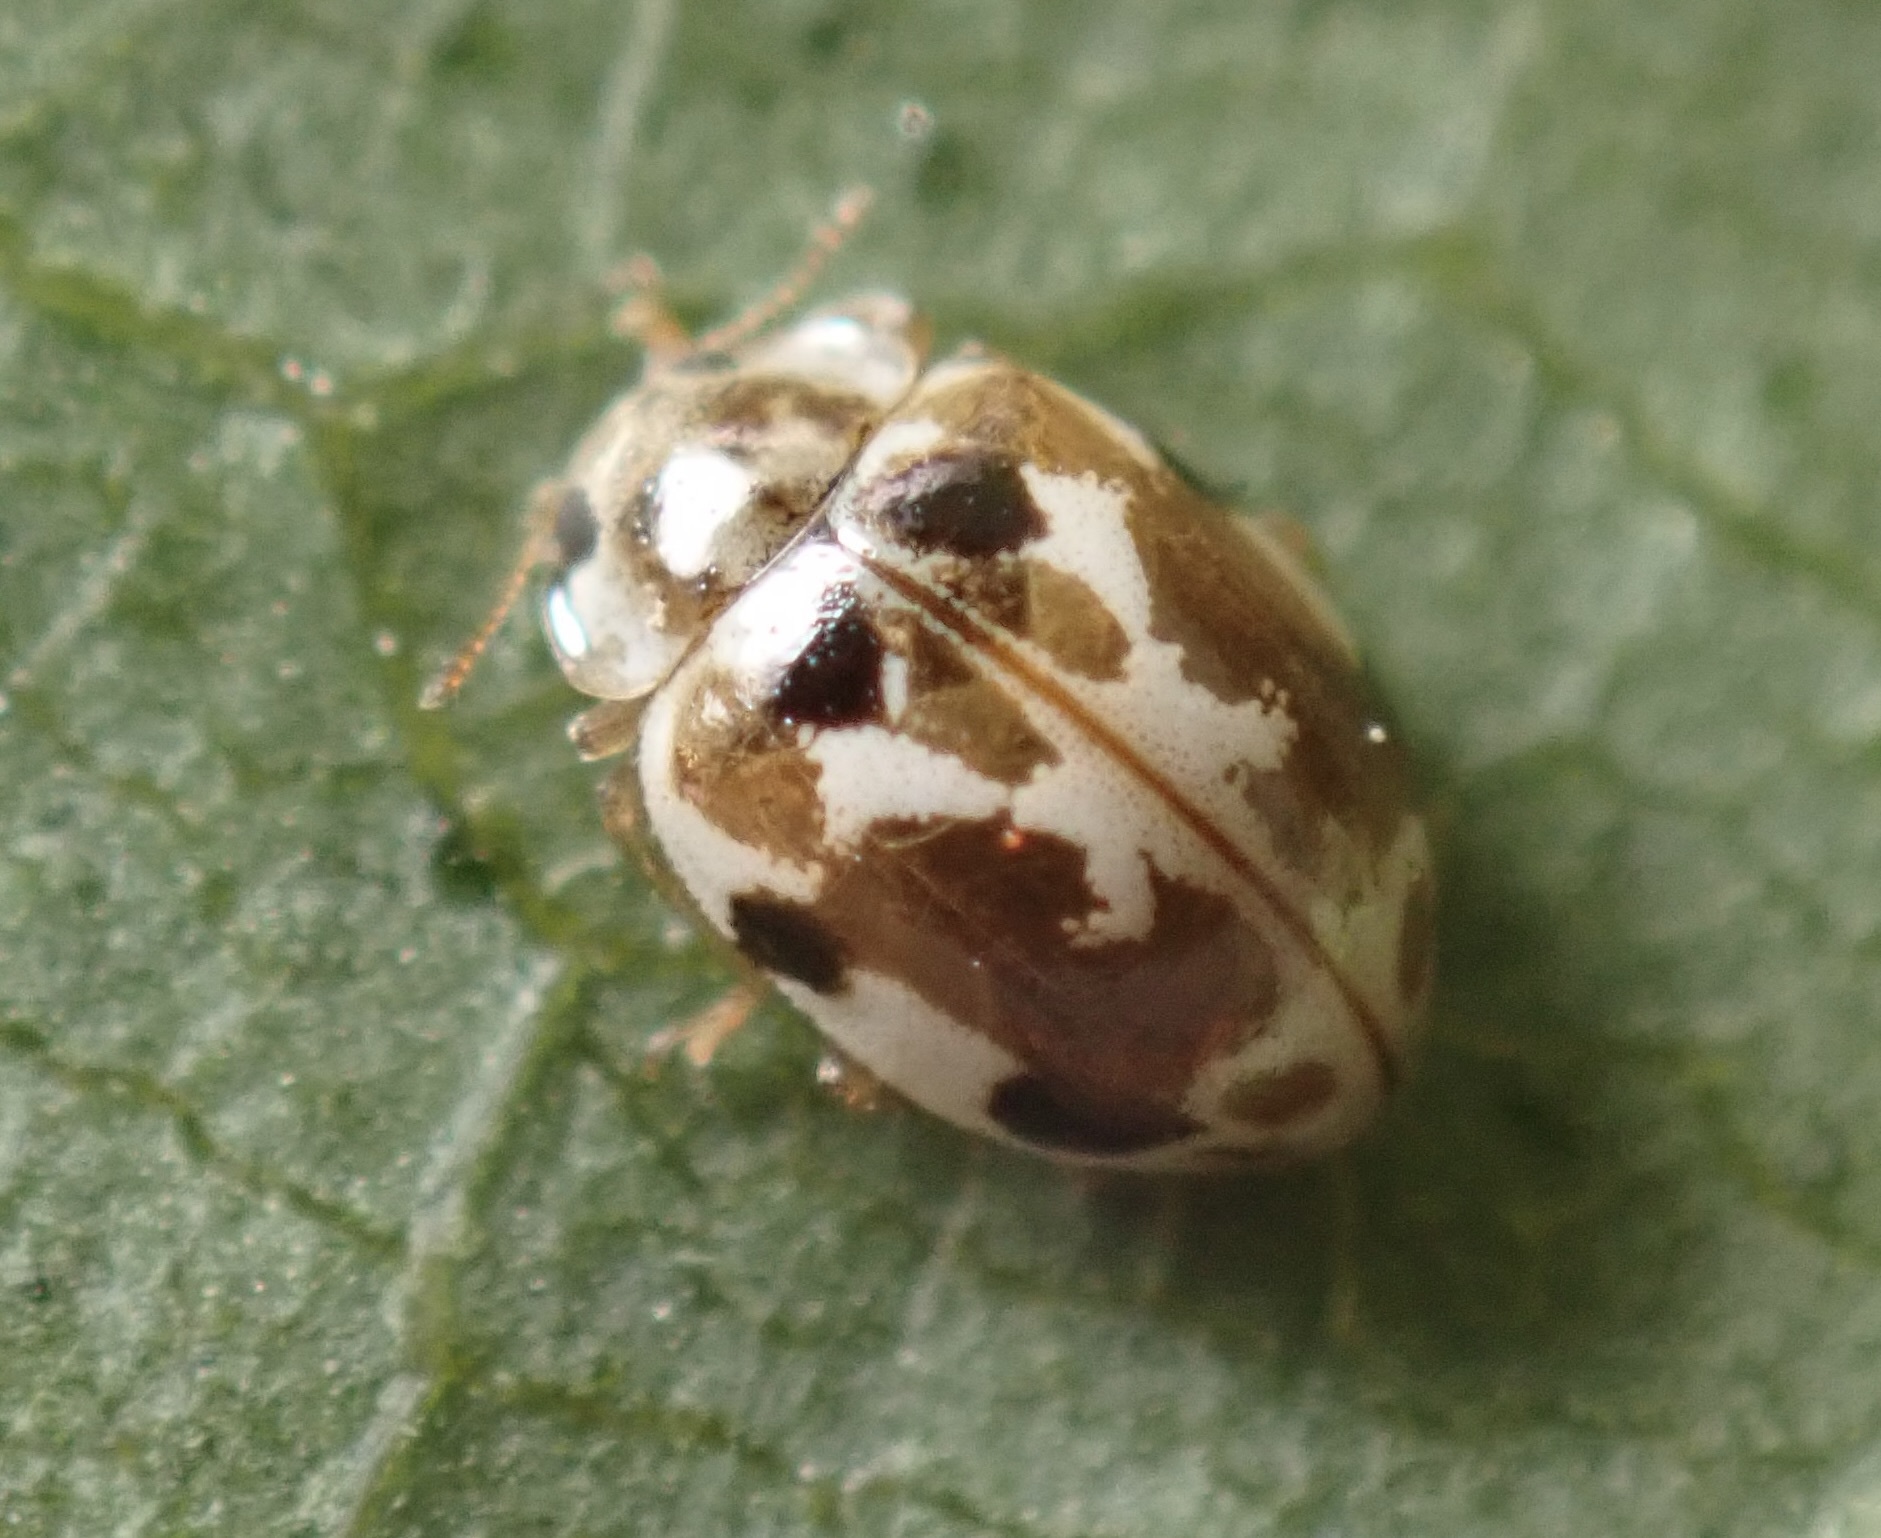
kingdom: Animalia
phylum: Arthropoda
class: Insecta
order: Coleoptera
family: Coccinellidae
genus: Psyllobora
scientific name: Psyllobora vigintimaculata
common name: Ladybird beetle
